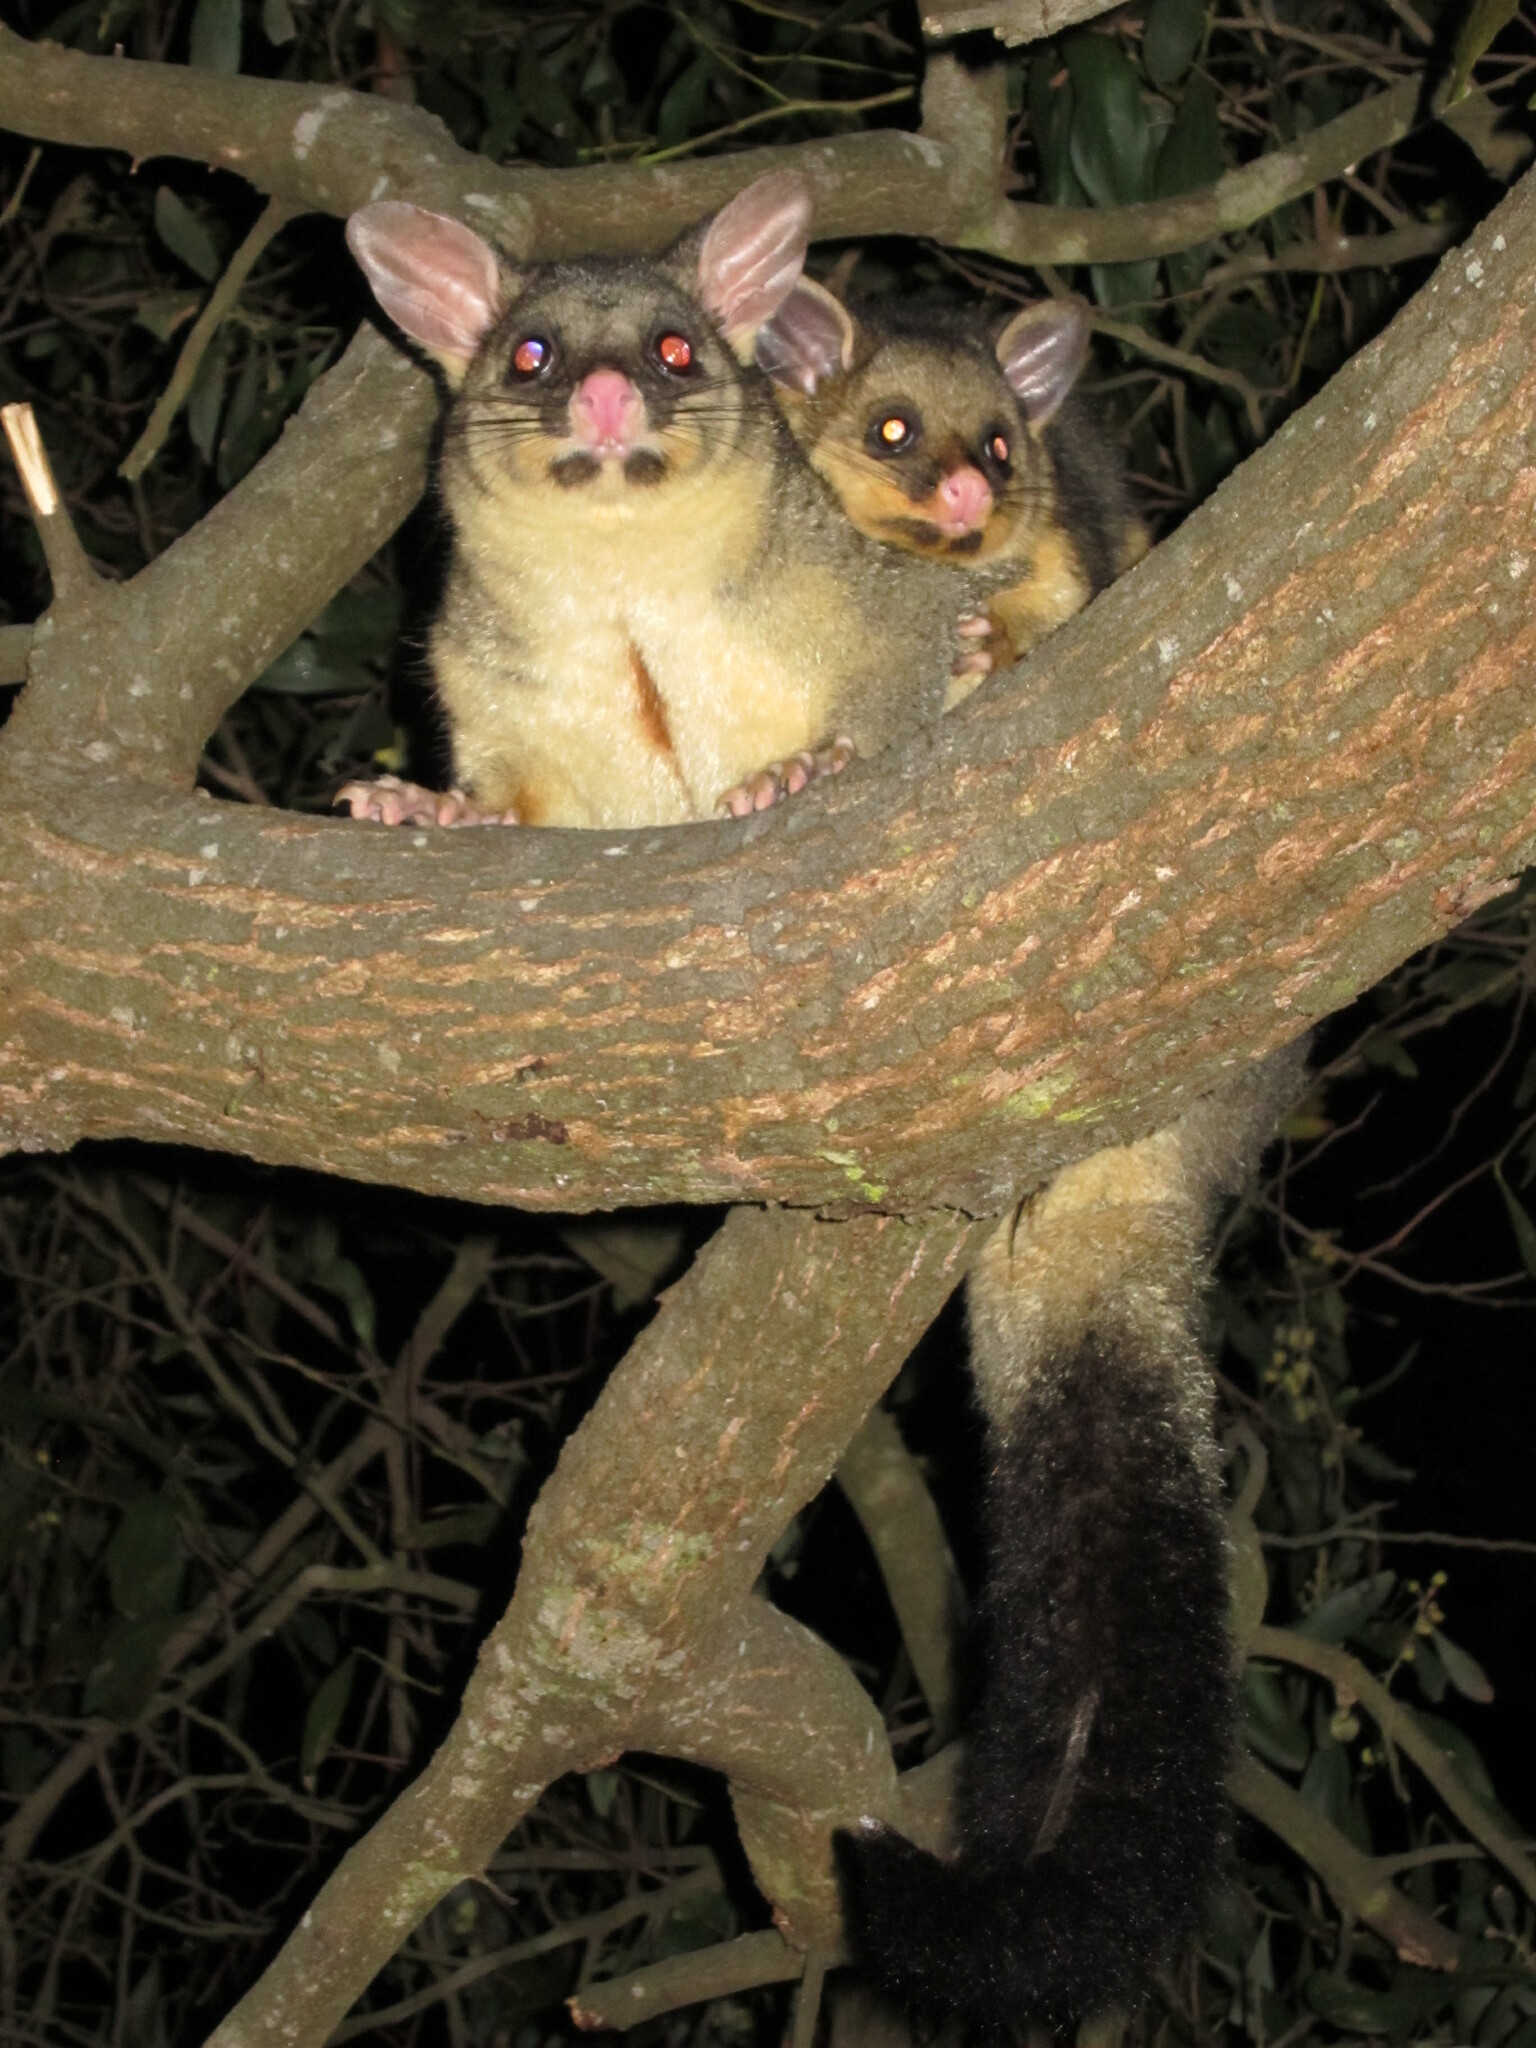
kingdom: Animalia
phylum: Chordata
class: Mammalia
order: Diprotodontia
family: Phalangeridae
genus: Trichosurus
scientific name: Trichosurus vulpecula
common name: Common brushtail
